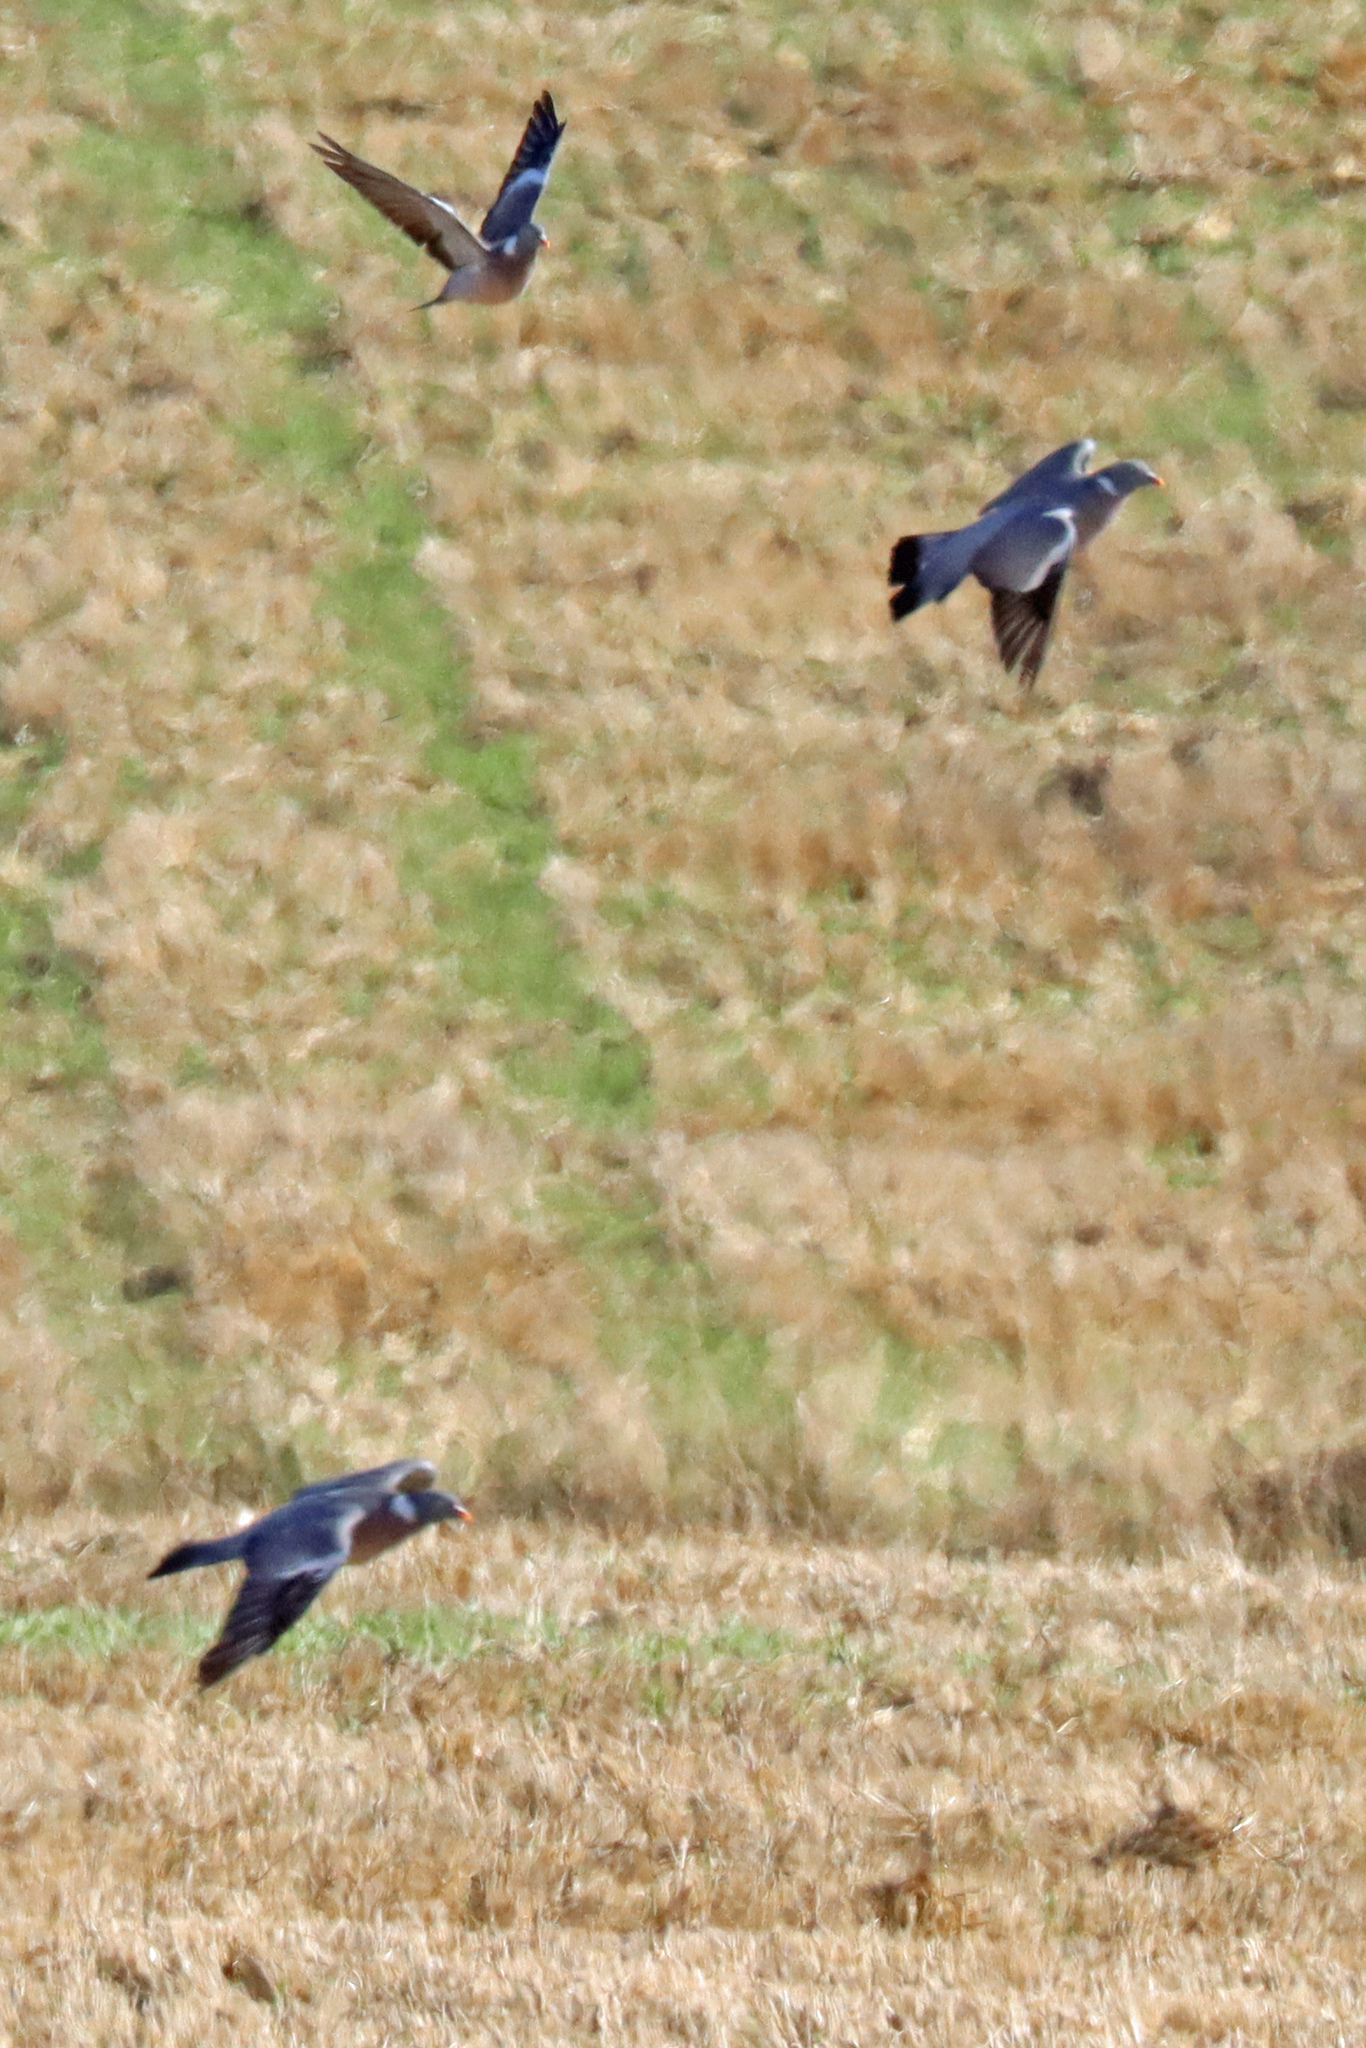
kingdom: Animalia
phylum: Chordata
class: Aves
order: Columbiformes
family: Columbidae
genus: Columba
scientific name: Columba palumbus
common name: Common wood pigeon
